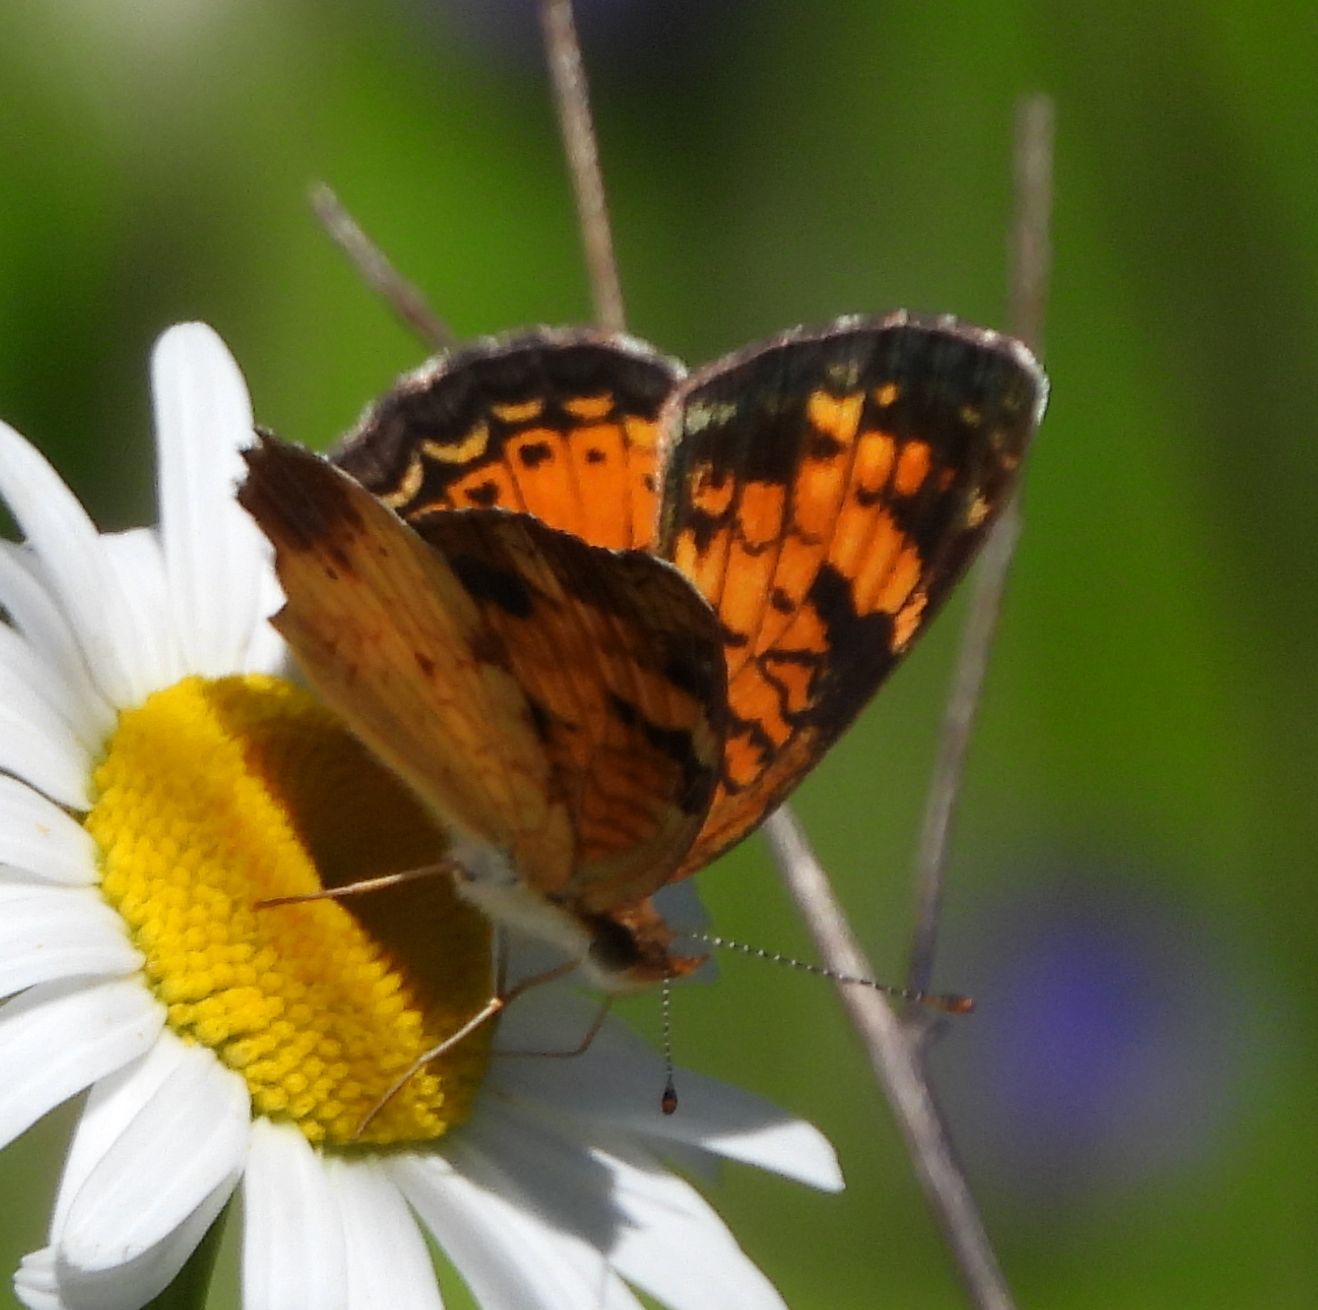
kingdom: Animalia
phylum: Arthropoda
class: Insecta
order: Lepidoptera
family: Nymphalidae
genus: Phyciodes
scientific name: Phyciodes tharos
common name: Pearl crescent
